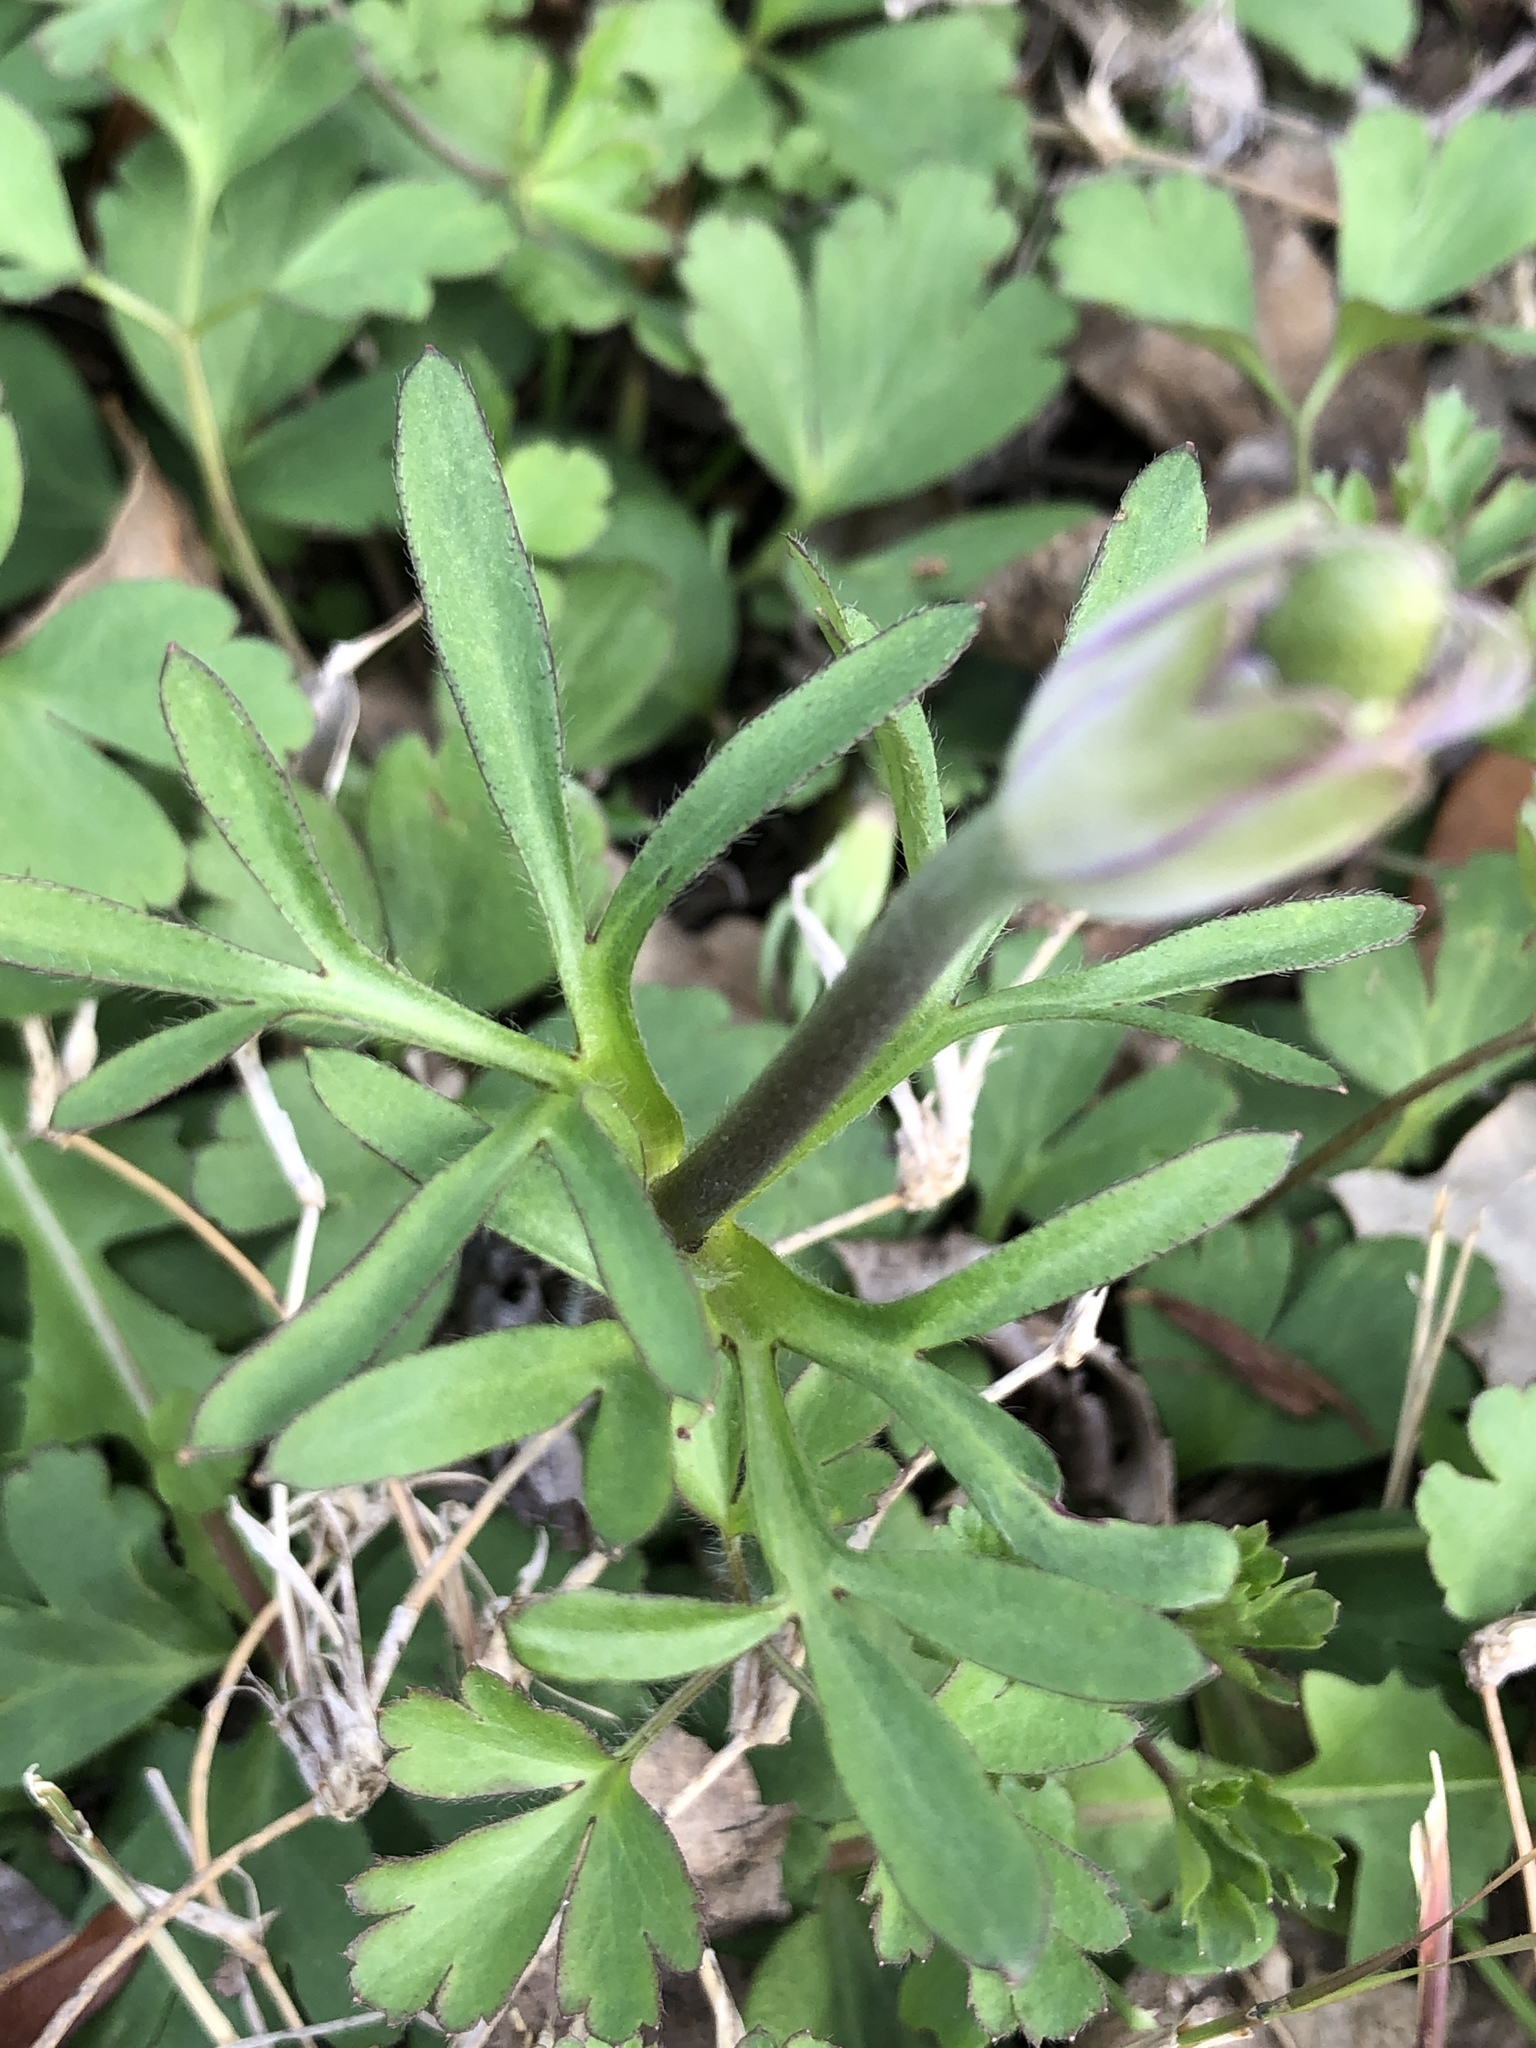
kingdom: Plantae
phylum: Tracheophyta
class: Magnoliopsida
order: Ranunculales
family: Ranunculaceae
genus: Anemone
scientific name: Anemone berlandieri
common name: Ten-petal anemone
